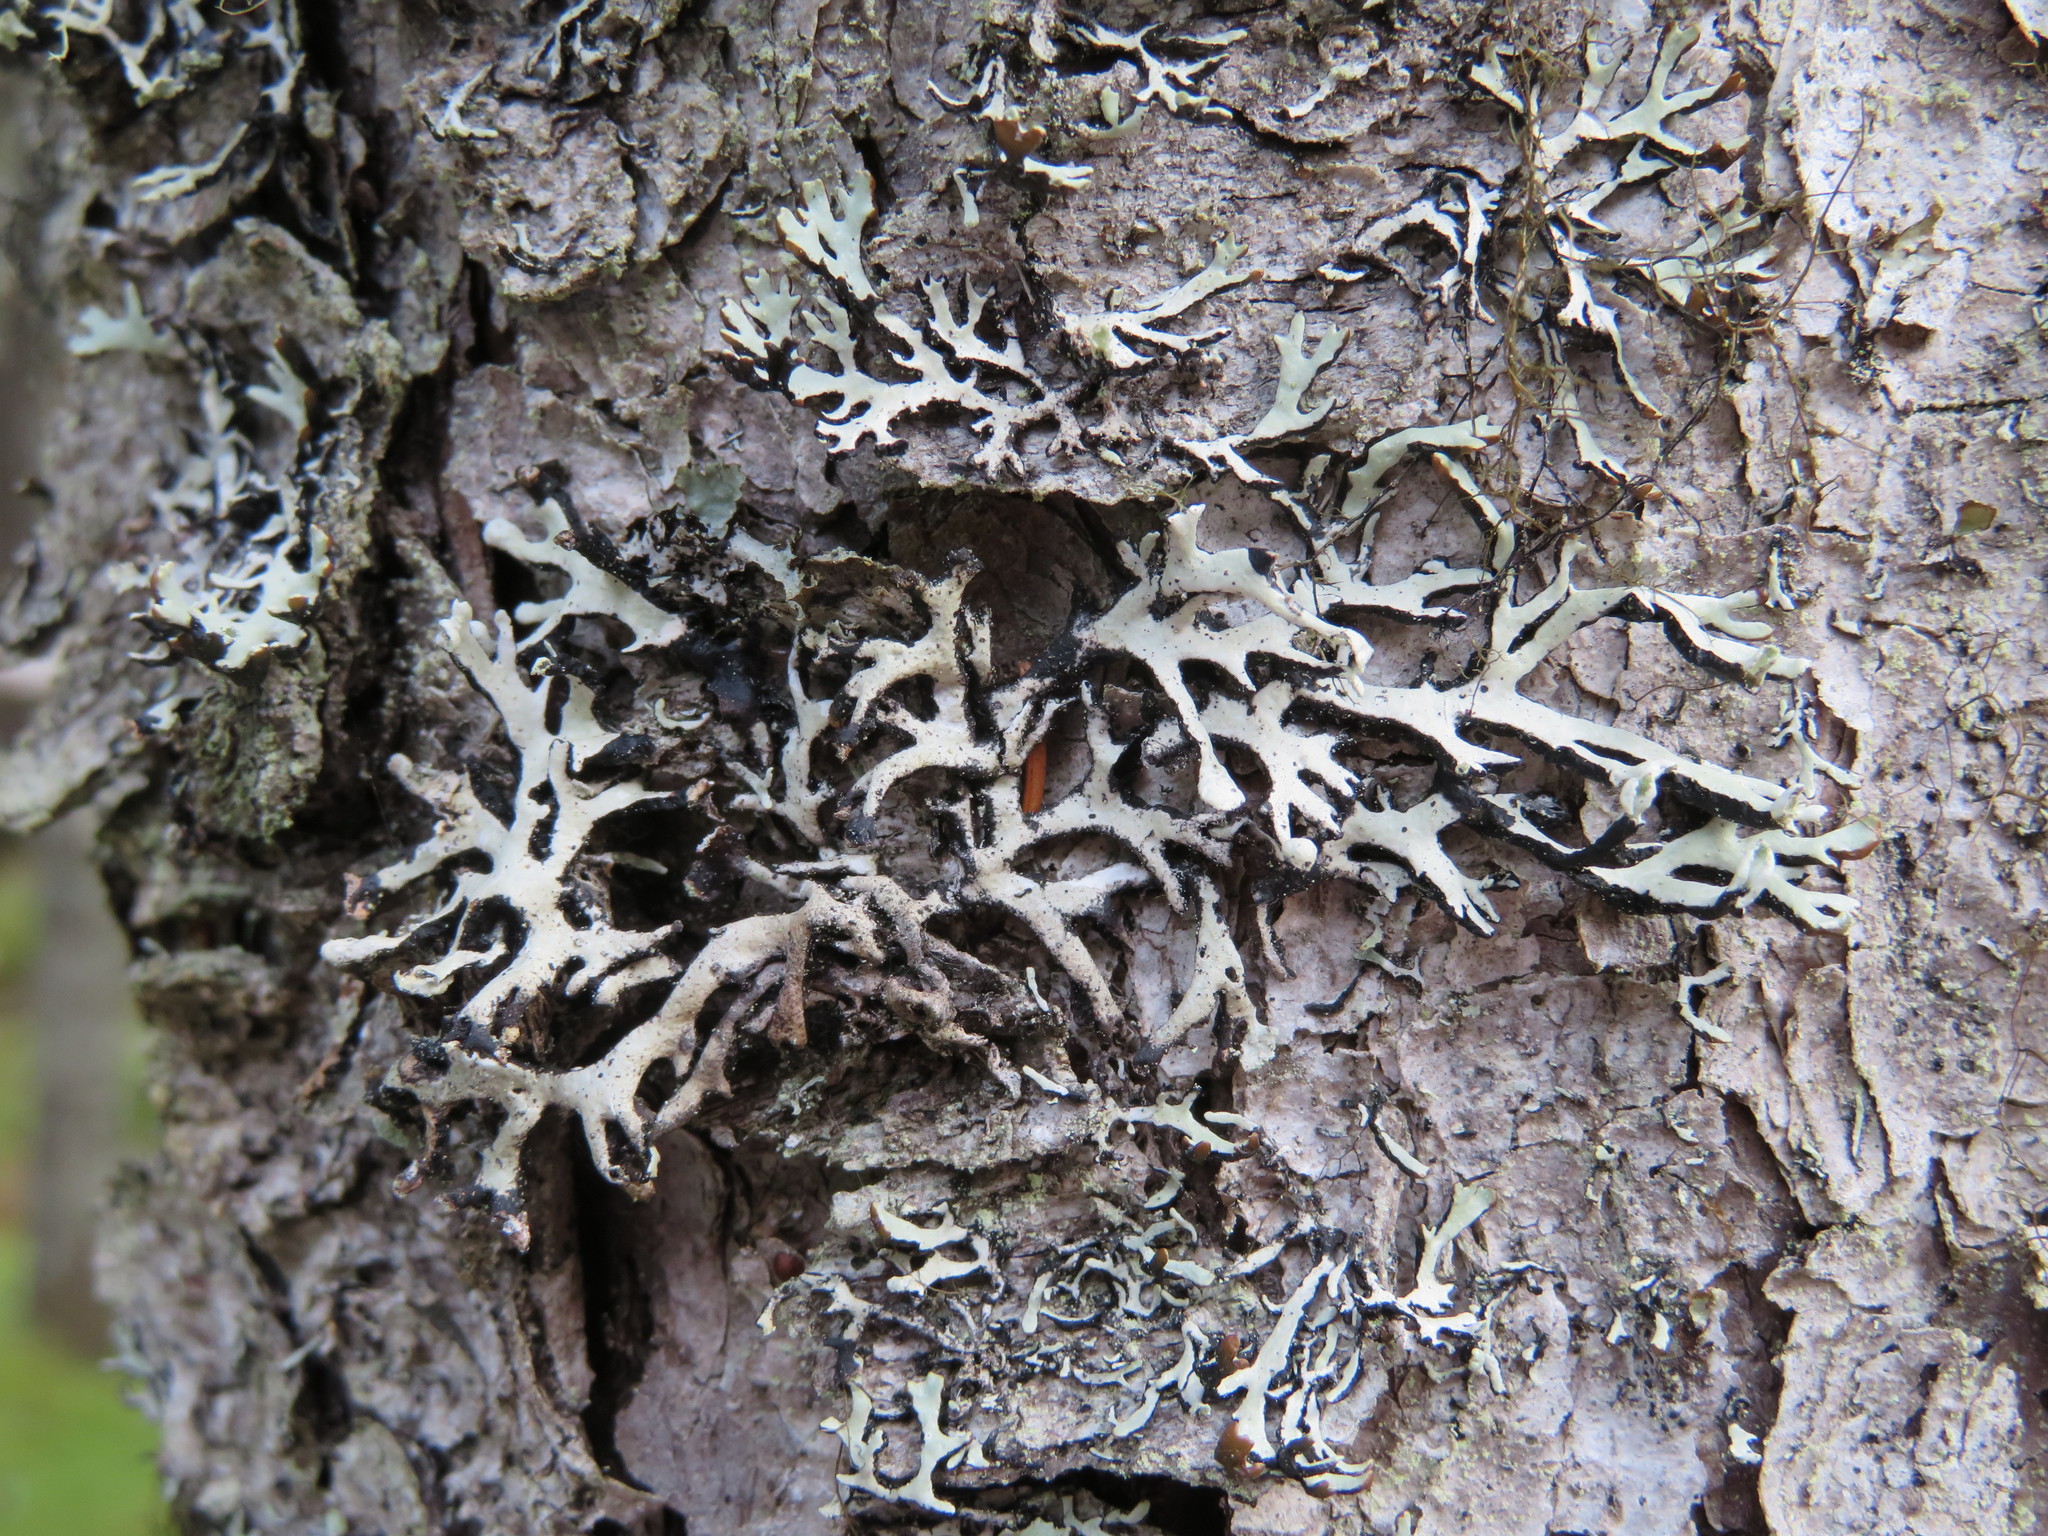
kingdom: Fungi
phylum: Ascomycota
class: Lecanoromycetes
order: Lecanorales
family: Parmeliaceae
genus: Hypogymnia
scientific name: Hypogymnia physodes
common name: Dark crottle
